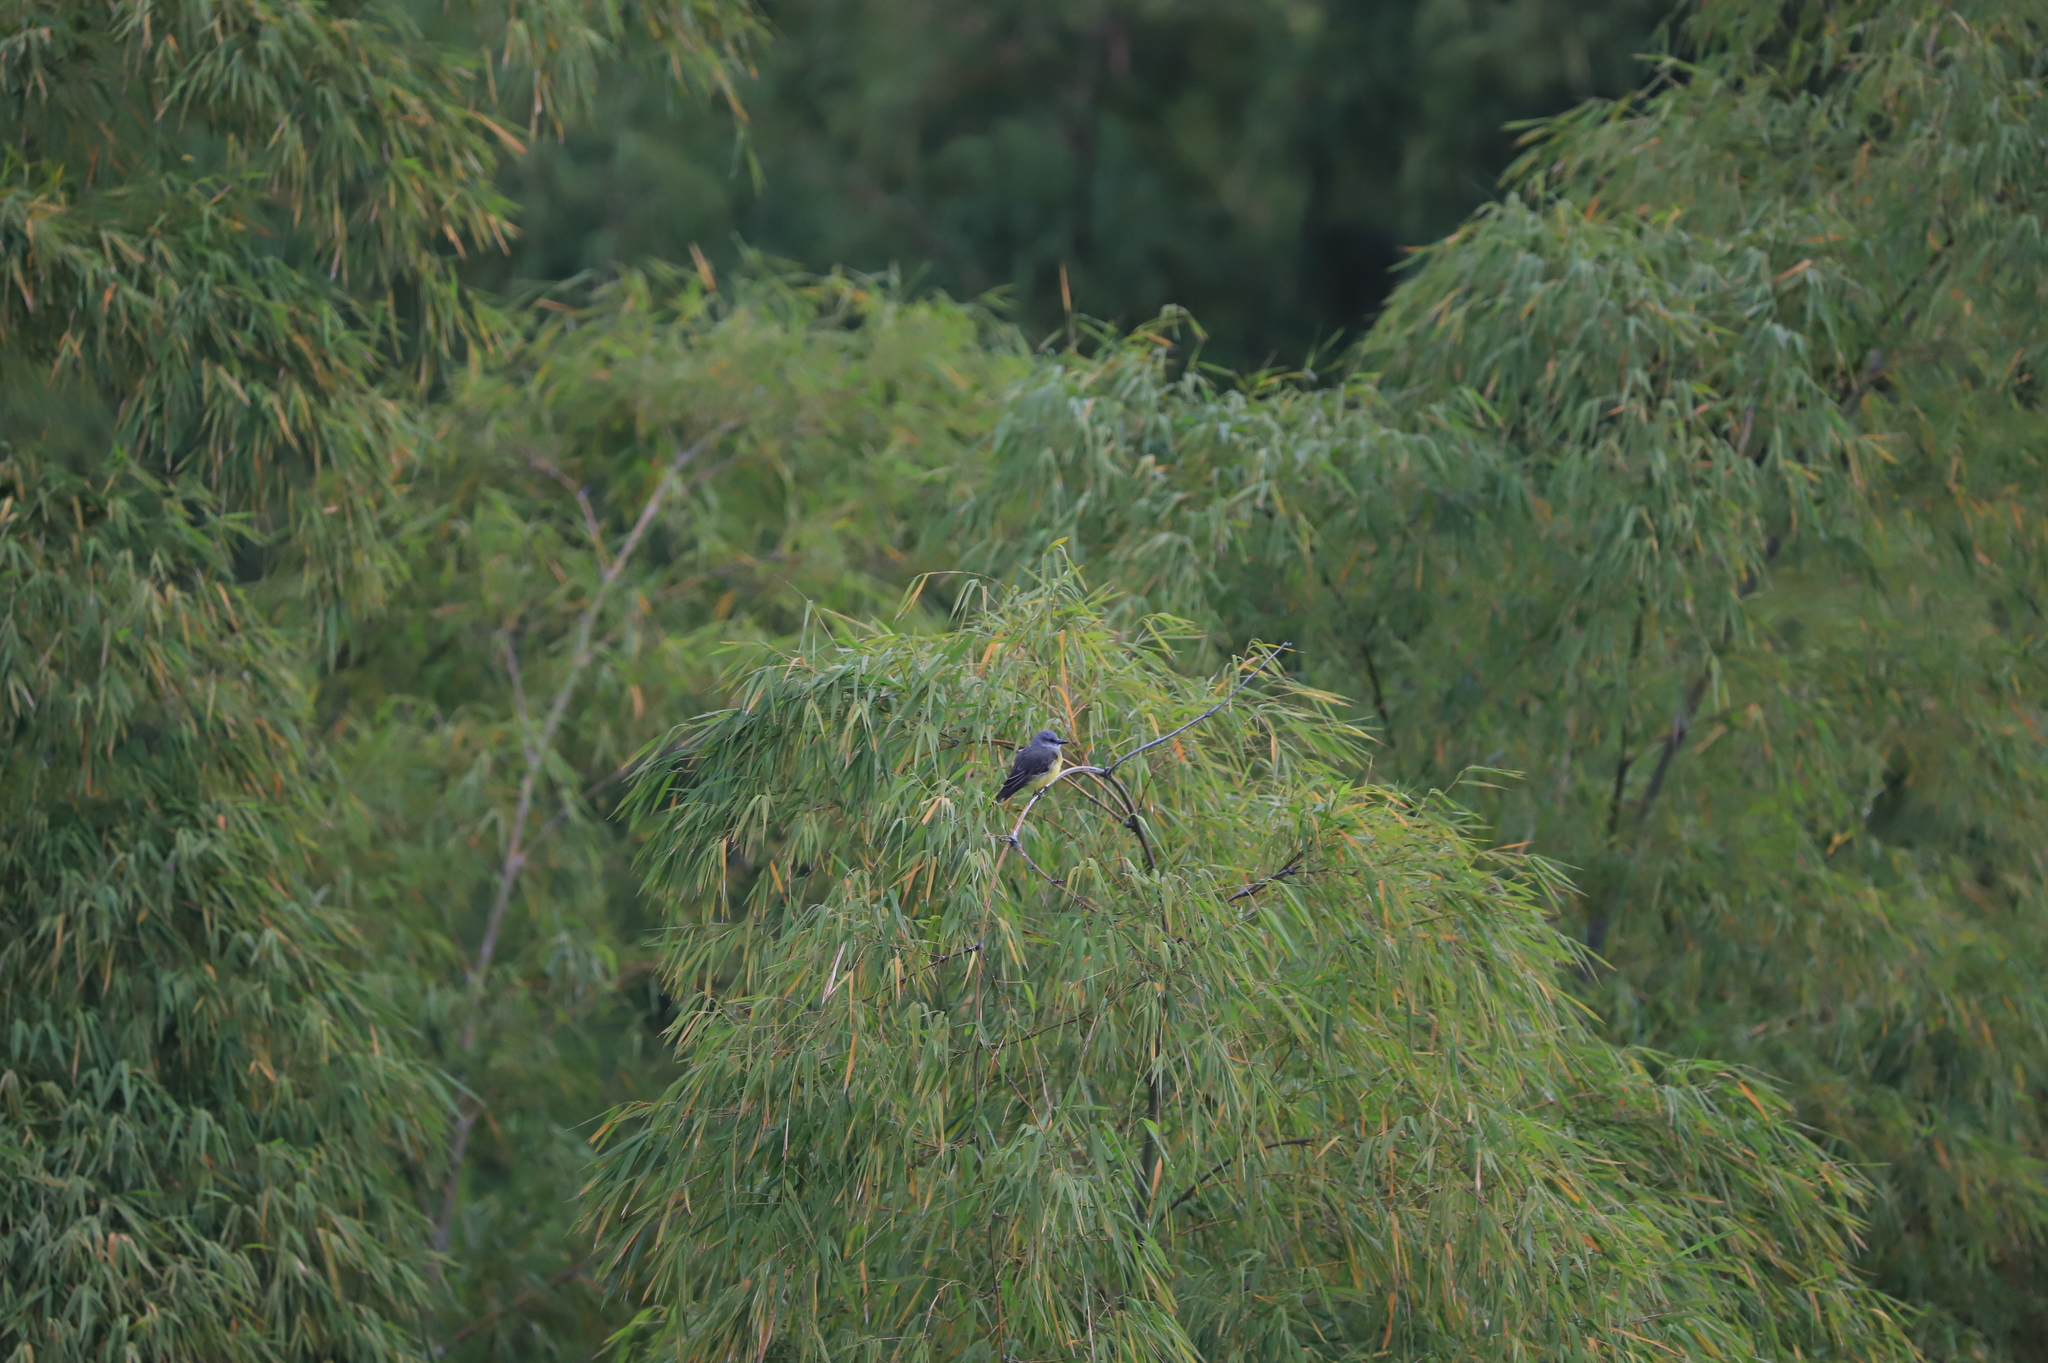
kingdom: Animalia
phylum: Chordata
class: Aves
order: Passeriformes
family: Tyrannidae
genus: Tyrannus
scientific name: Tyrannus melancholicus
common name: Tropical kingbird
